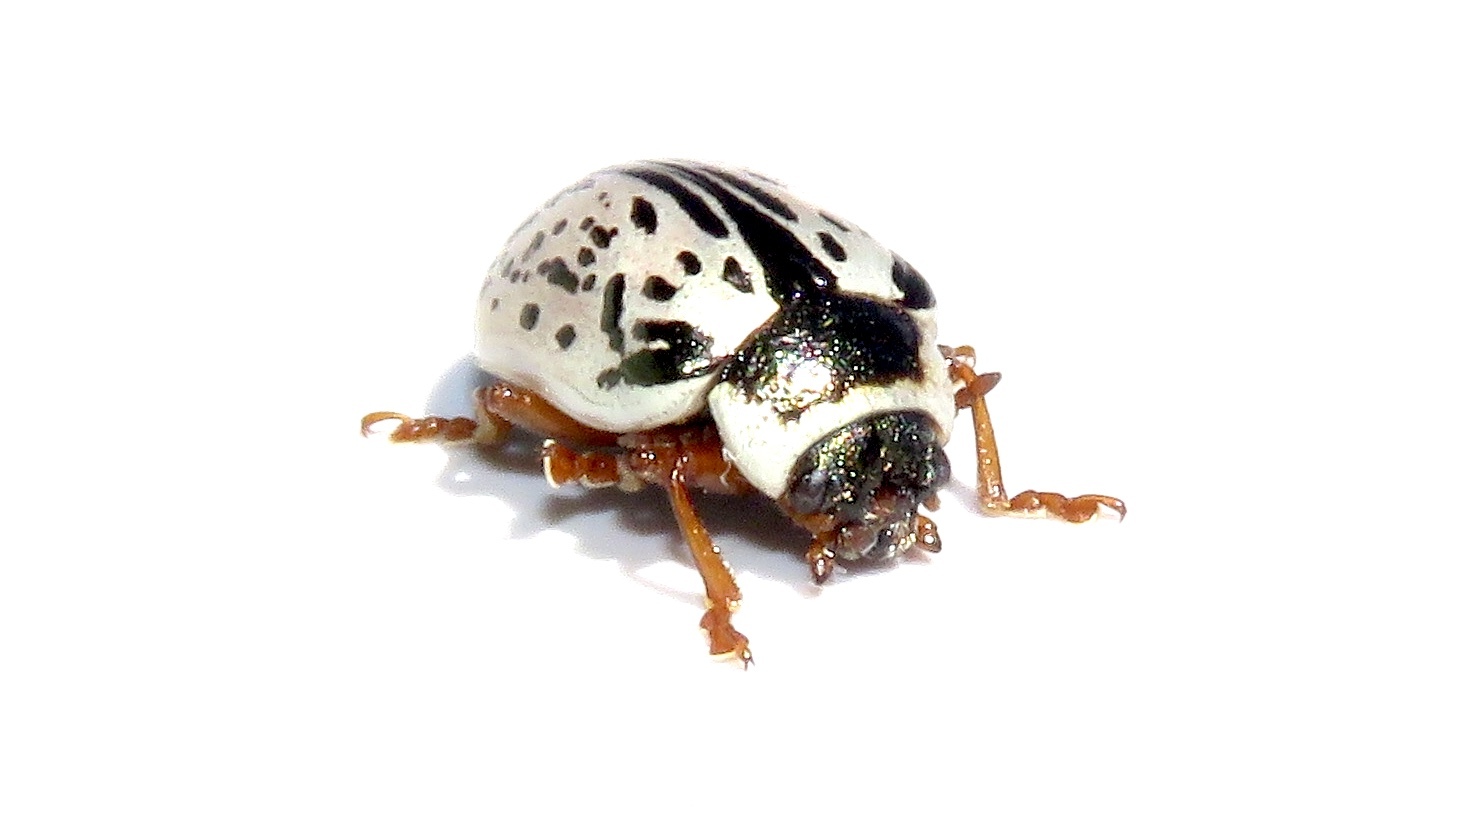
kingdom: Animalia
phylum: Arthropoda
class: Insecta
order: Coleoptera
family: Chrysomelidae
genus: Calligrapha
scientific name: Calligrapha multipunctata
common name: Common willow calligrapher beetle
